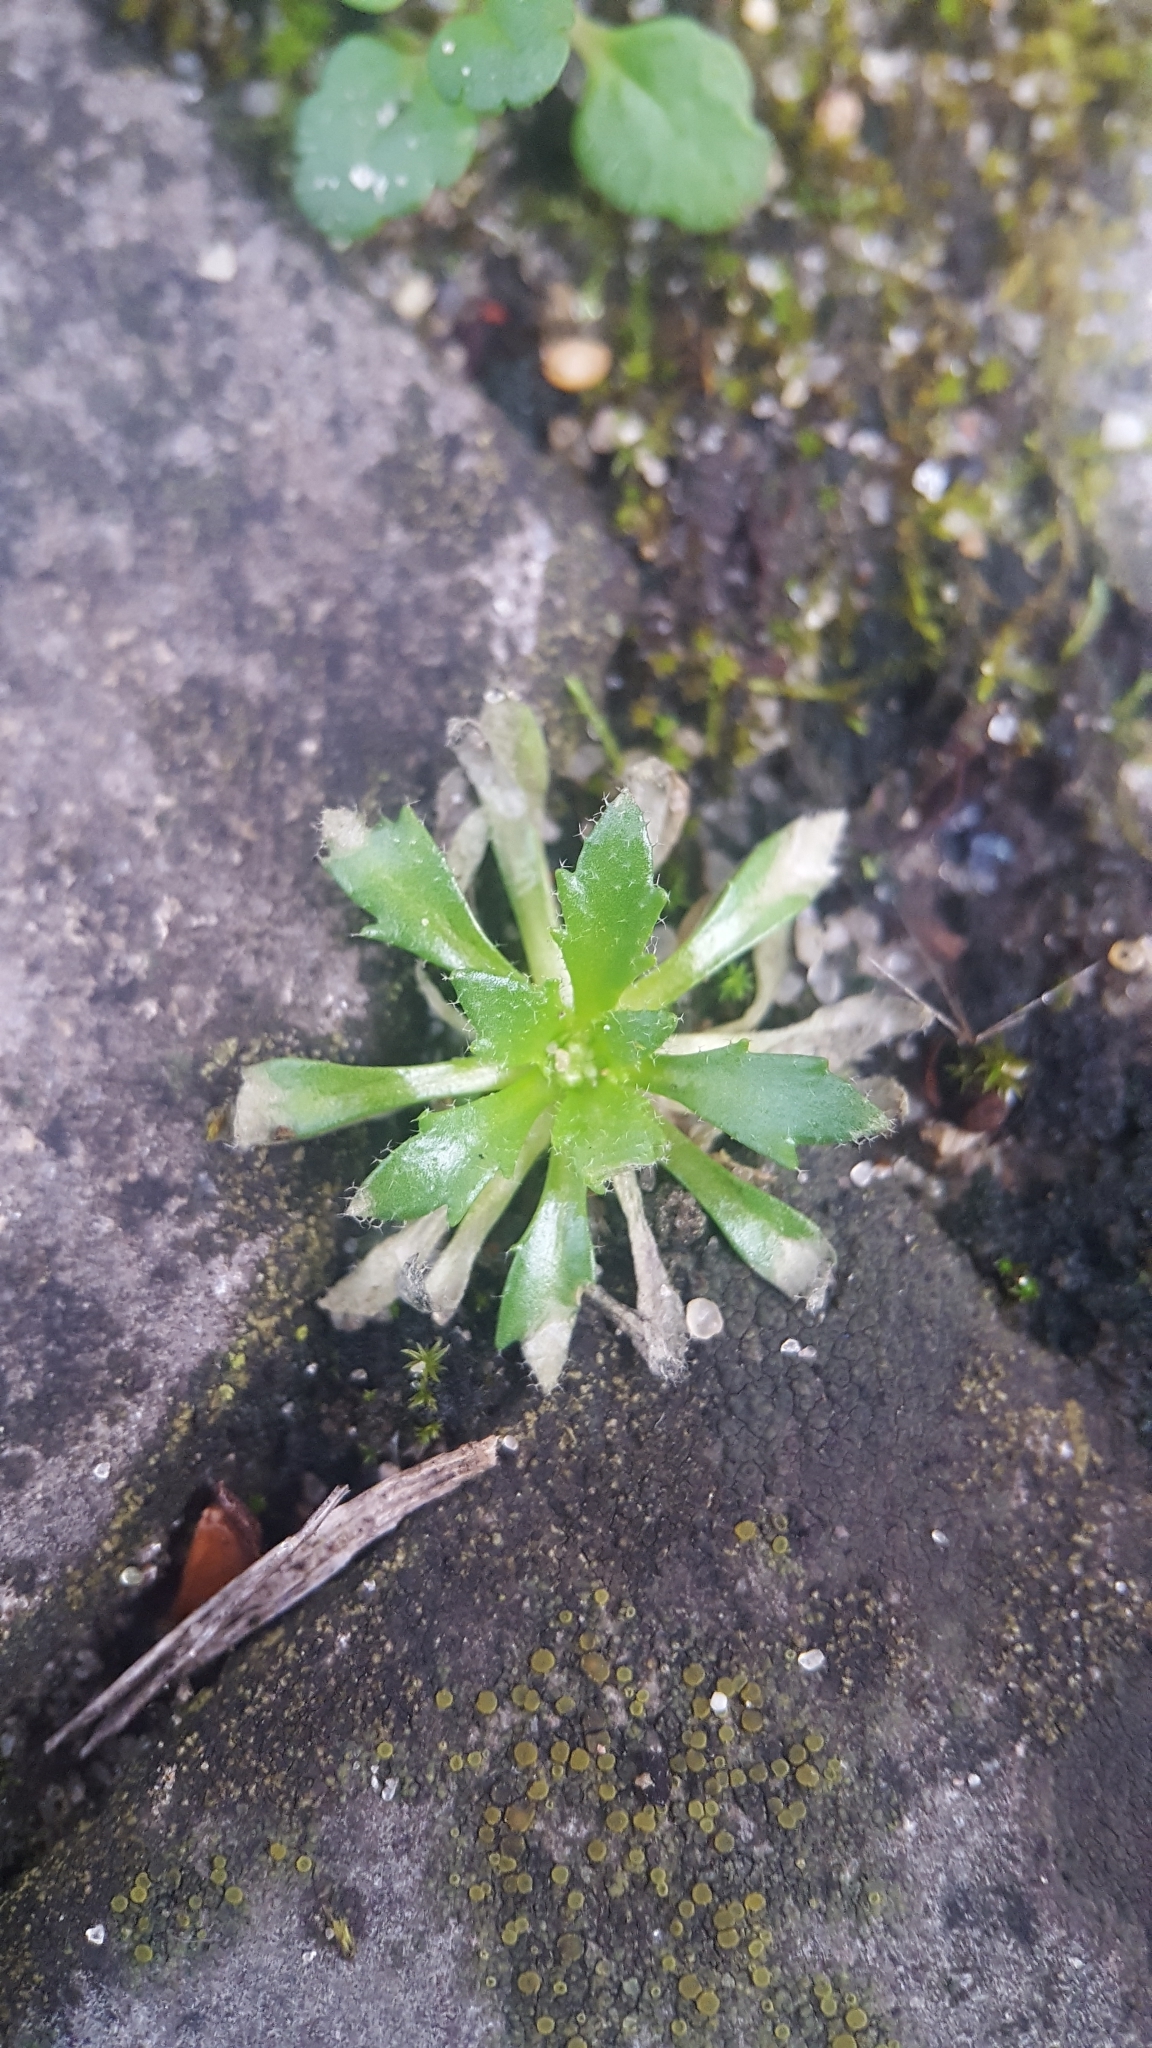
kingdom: Plantae
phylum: Tracheophyta
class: Magnoliopsida
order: Brassicales
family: Brassicaceae
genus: Draba
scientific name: Draba verna
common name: Spring draba
